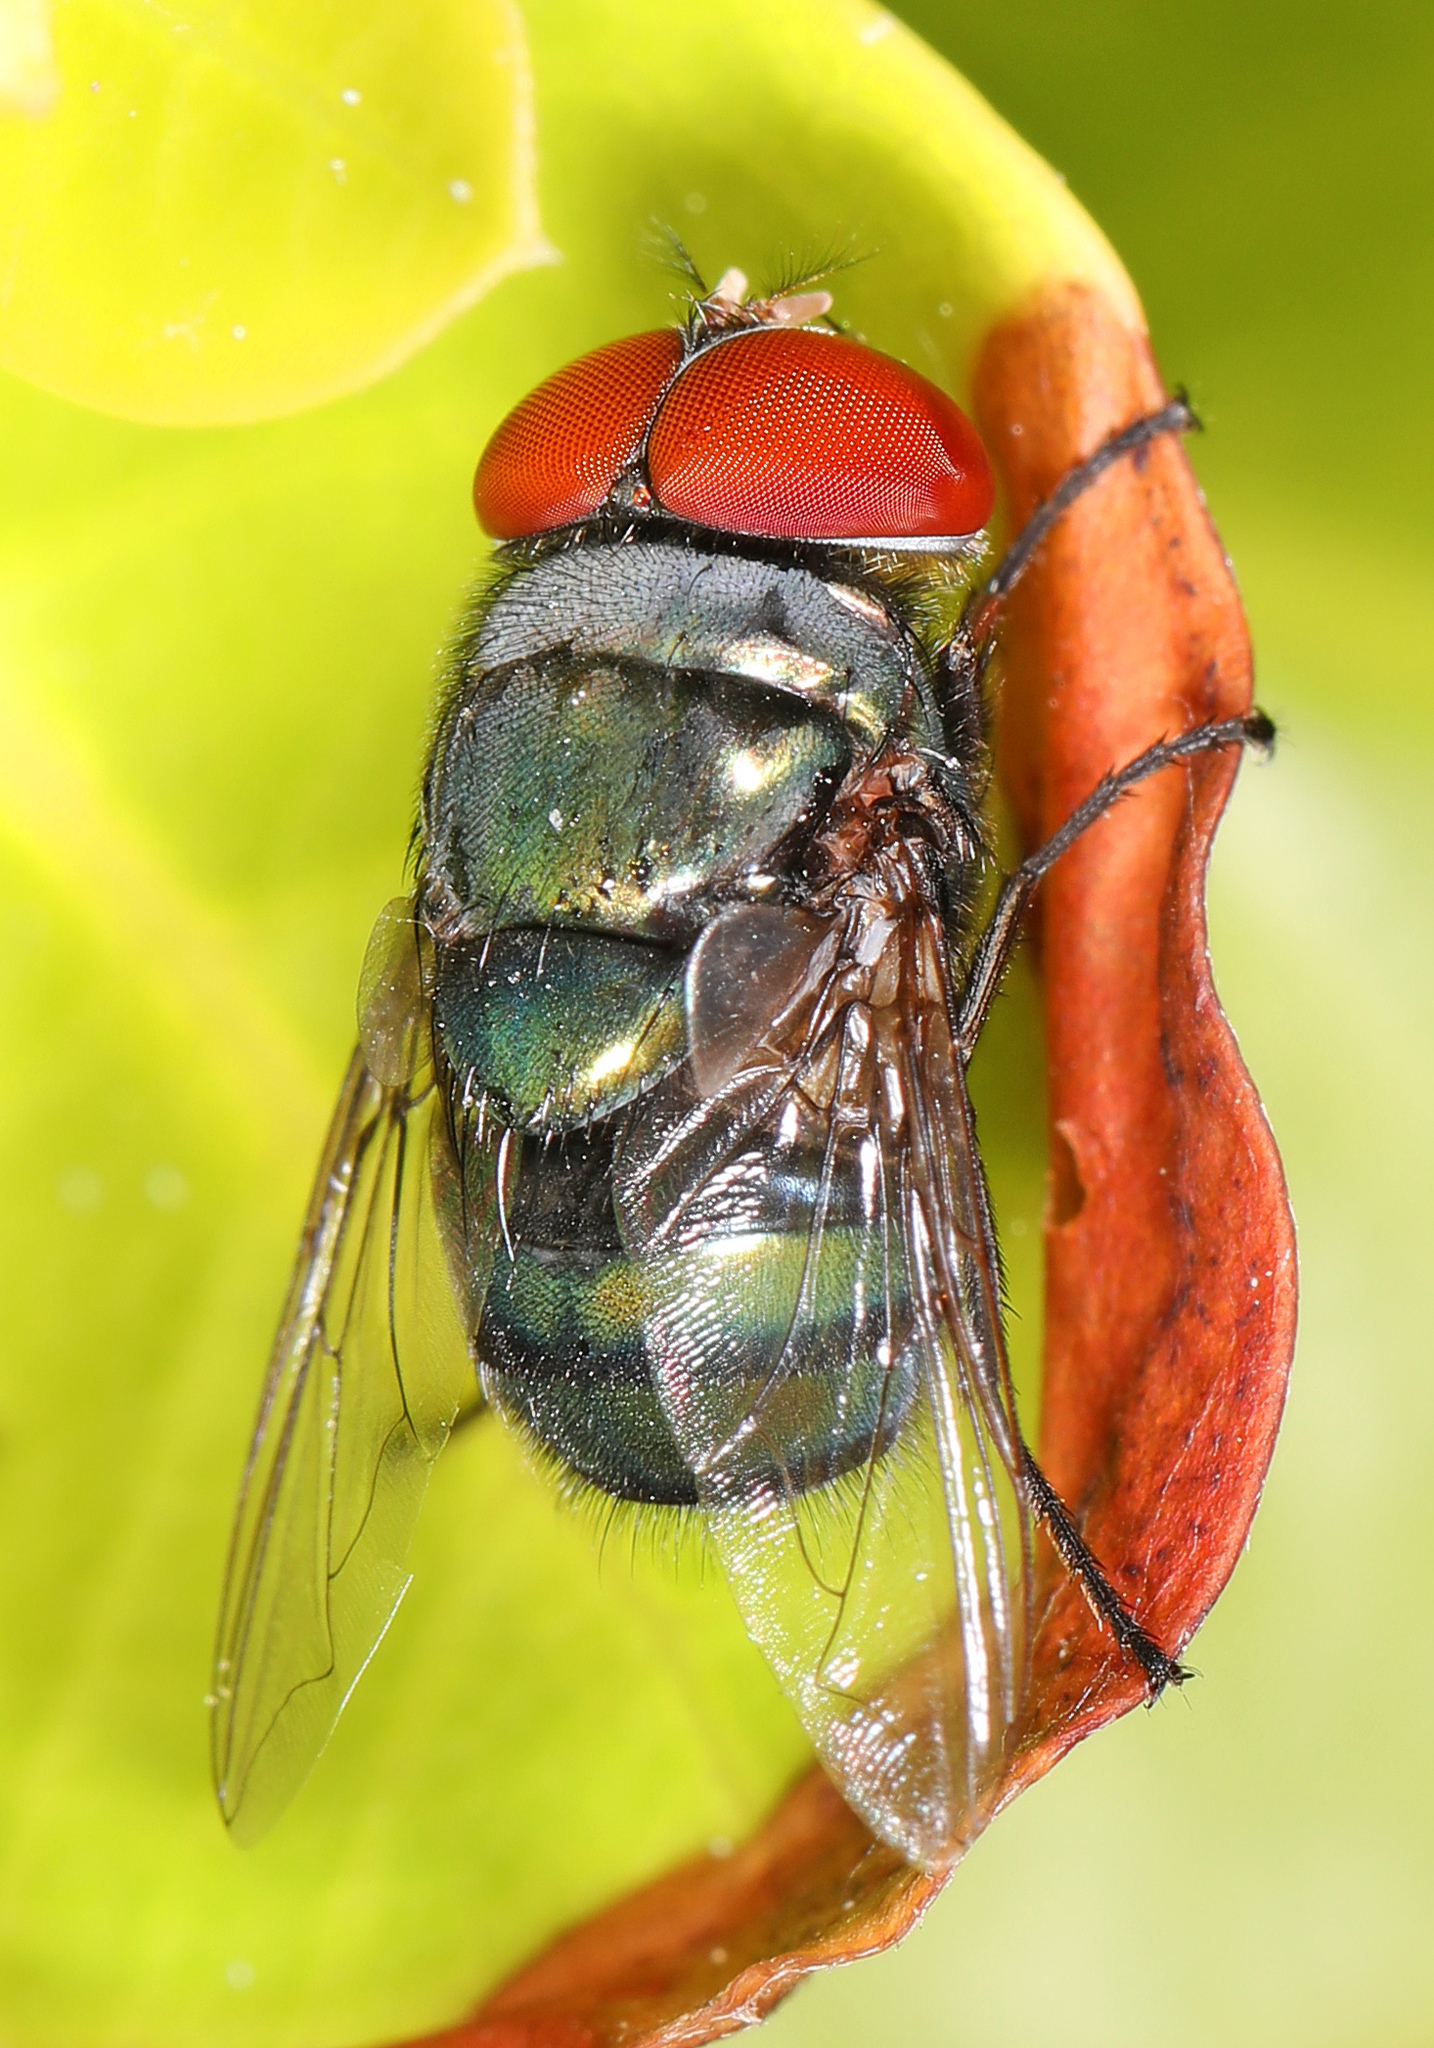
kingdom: Animalia
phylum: Arthropoda
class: Insecta
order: Diptera
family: Calliphoridae
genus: Chrysomya
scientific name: Chrysomya megacephala
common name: Blow fly
